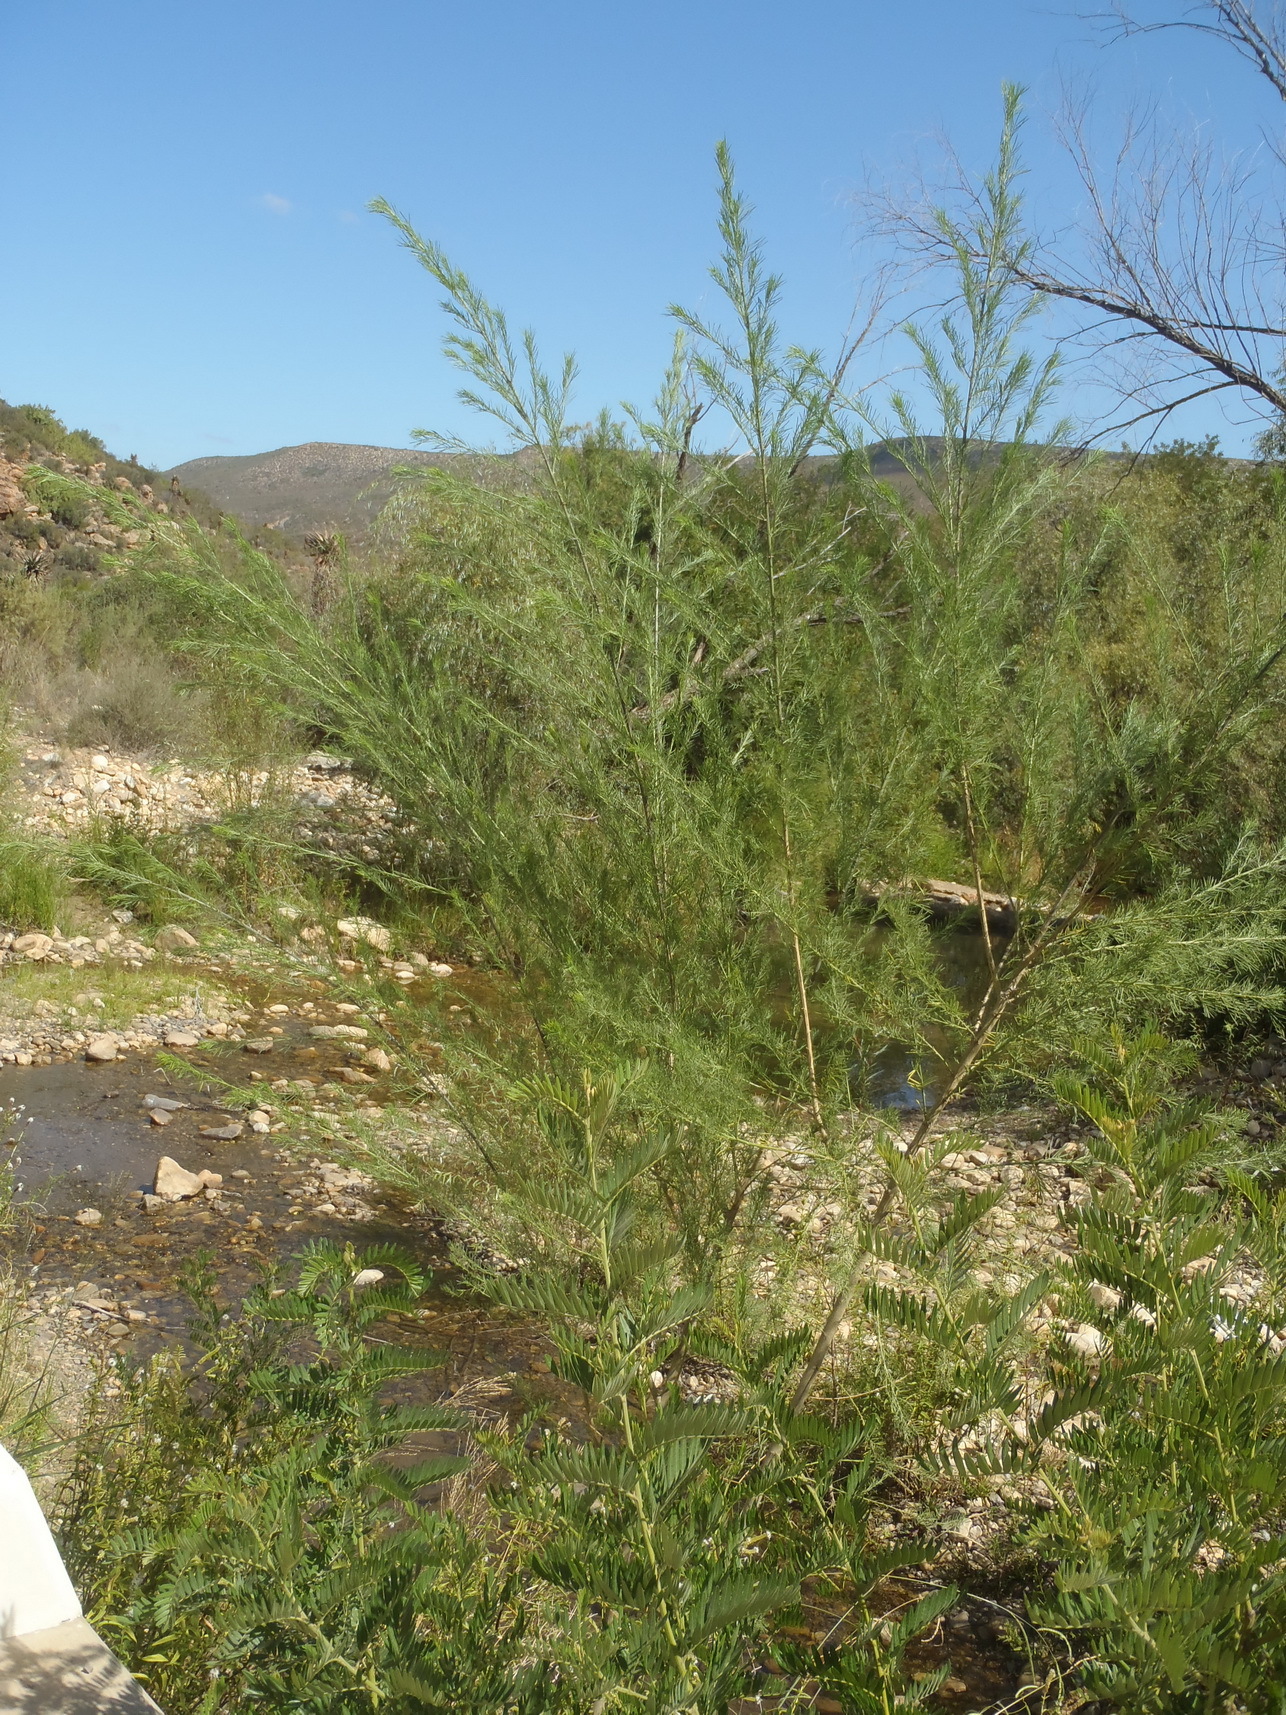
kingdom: Plantae
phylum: Tracheophyta
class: Magnoliopsida
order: Fabales
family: Fabaceae
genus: Psoralea
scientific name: Psoralea odoratissima
